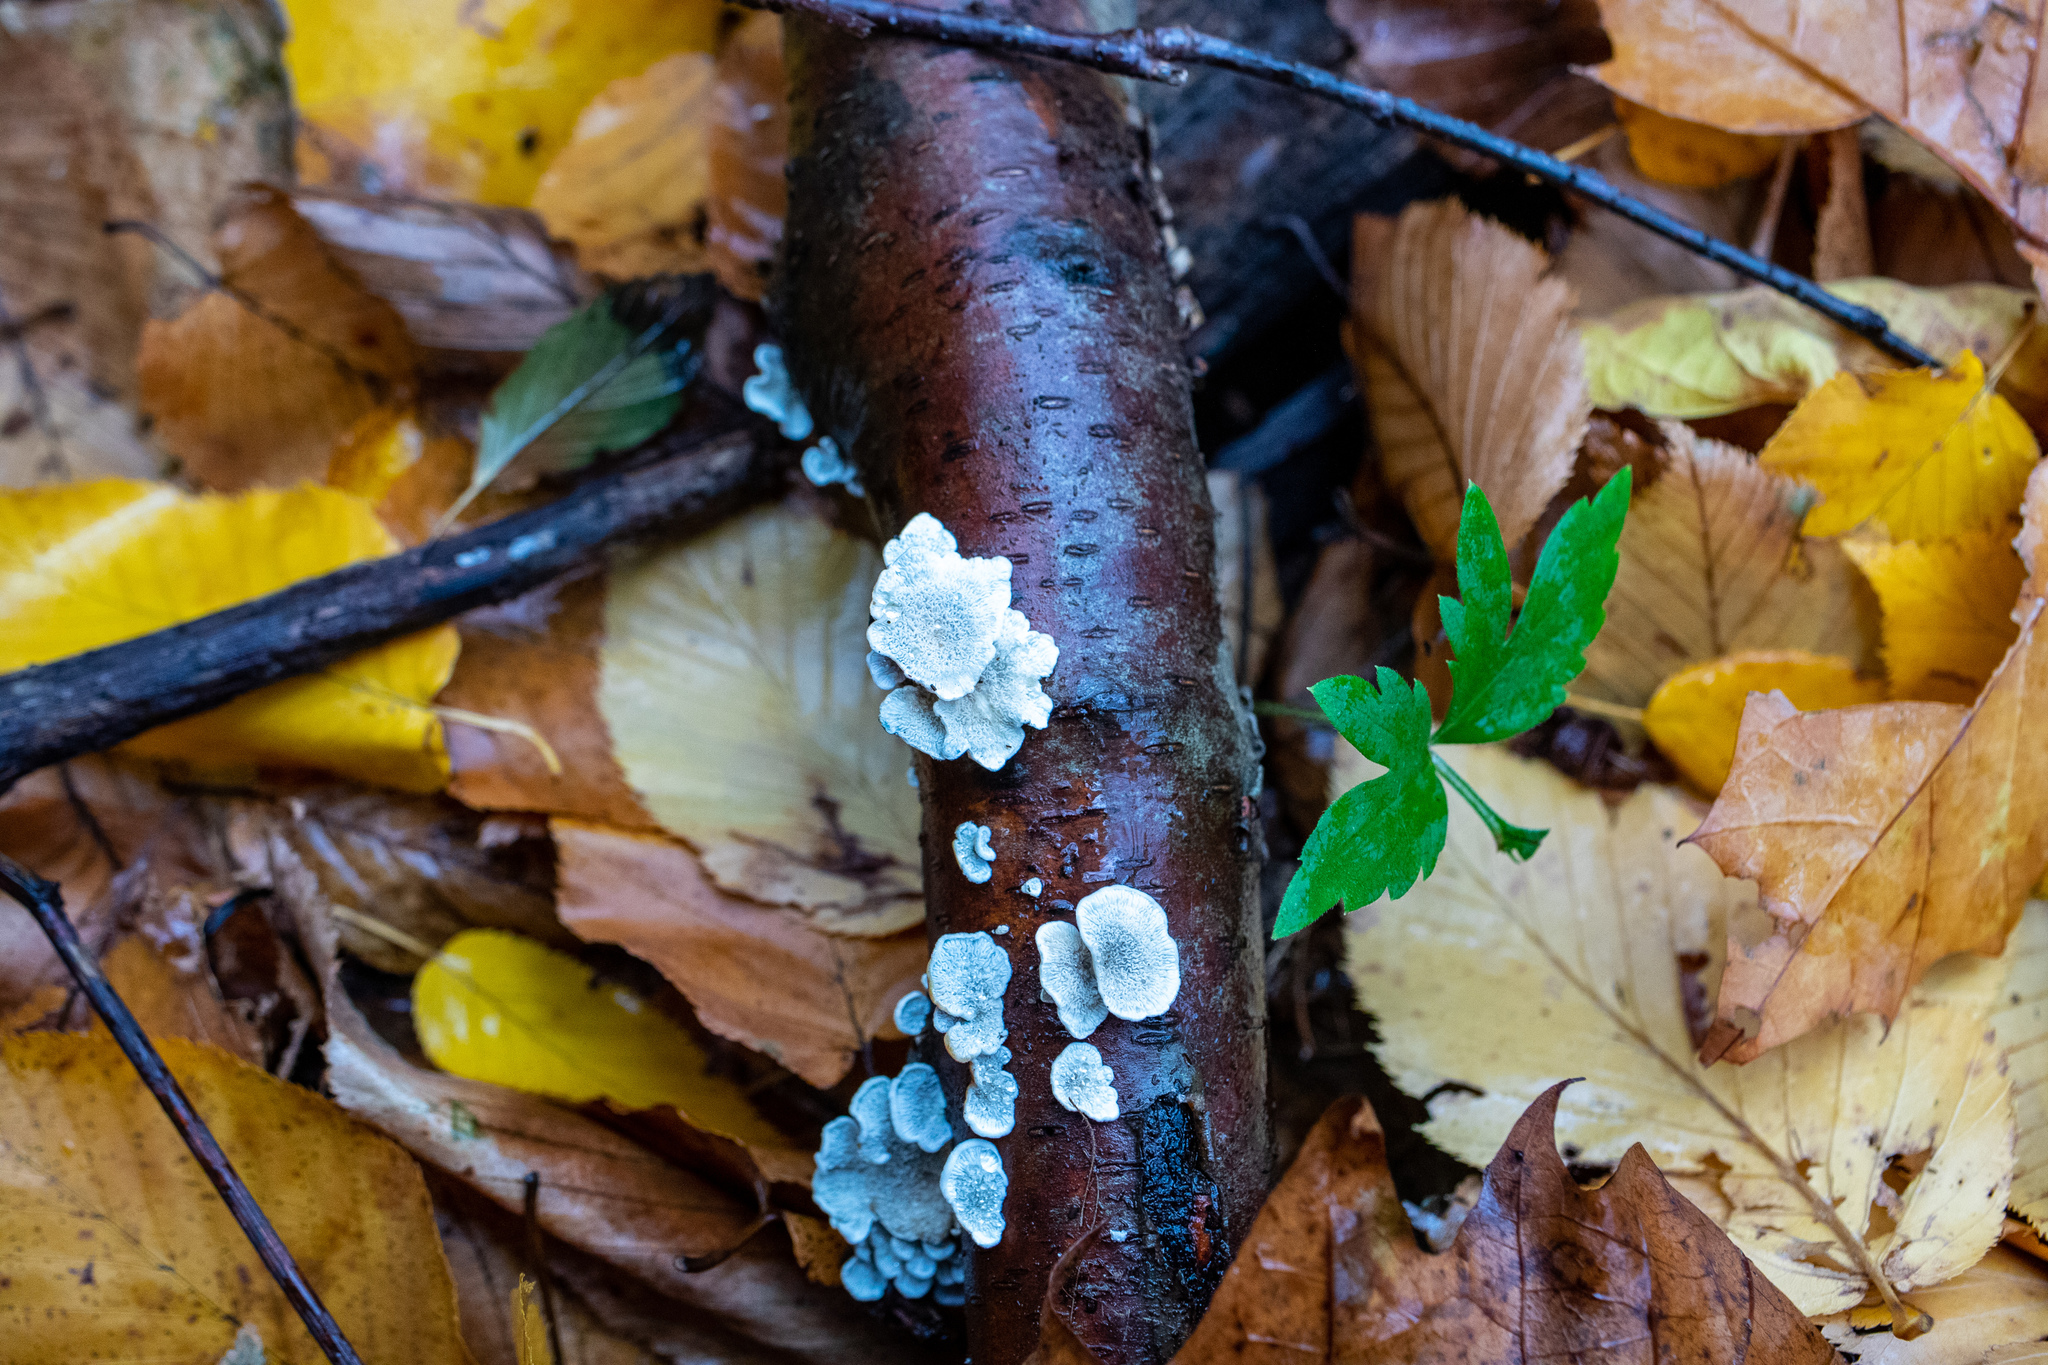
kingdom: Fungi
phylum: Basidiomycota
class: Agaricomycetes
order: Amylocorticiales
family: Amylocorticiaceae
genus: Plicaturopsis
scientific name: Plicaturopsis crispa
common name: Crimped gill
